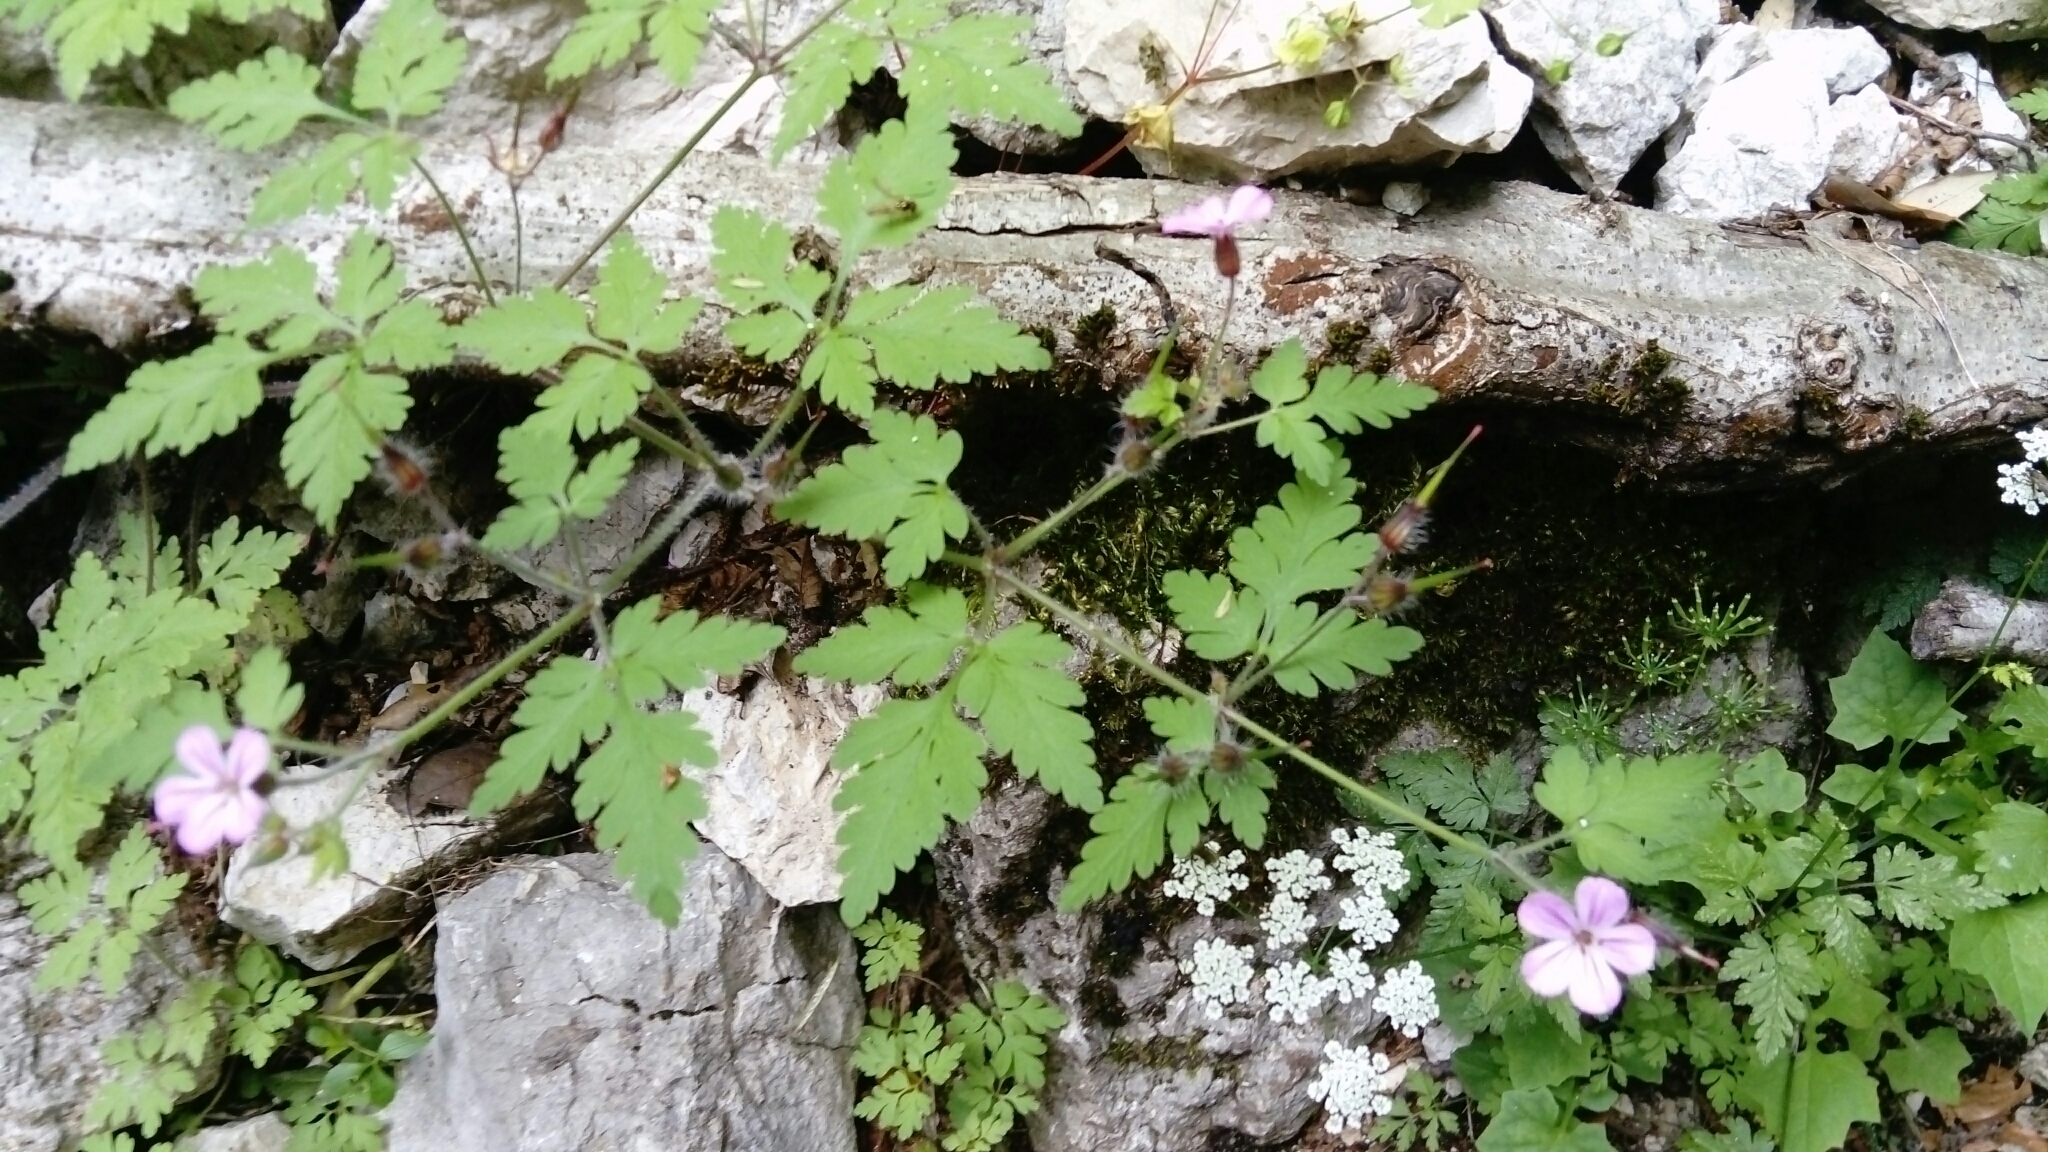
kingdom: Plantae
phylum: Tracheophyta
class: Magnoliopsida
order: Geraniales
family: Geraniaceae
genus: Geranium
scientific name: Geranium robertianum
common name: Herb-robert
